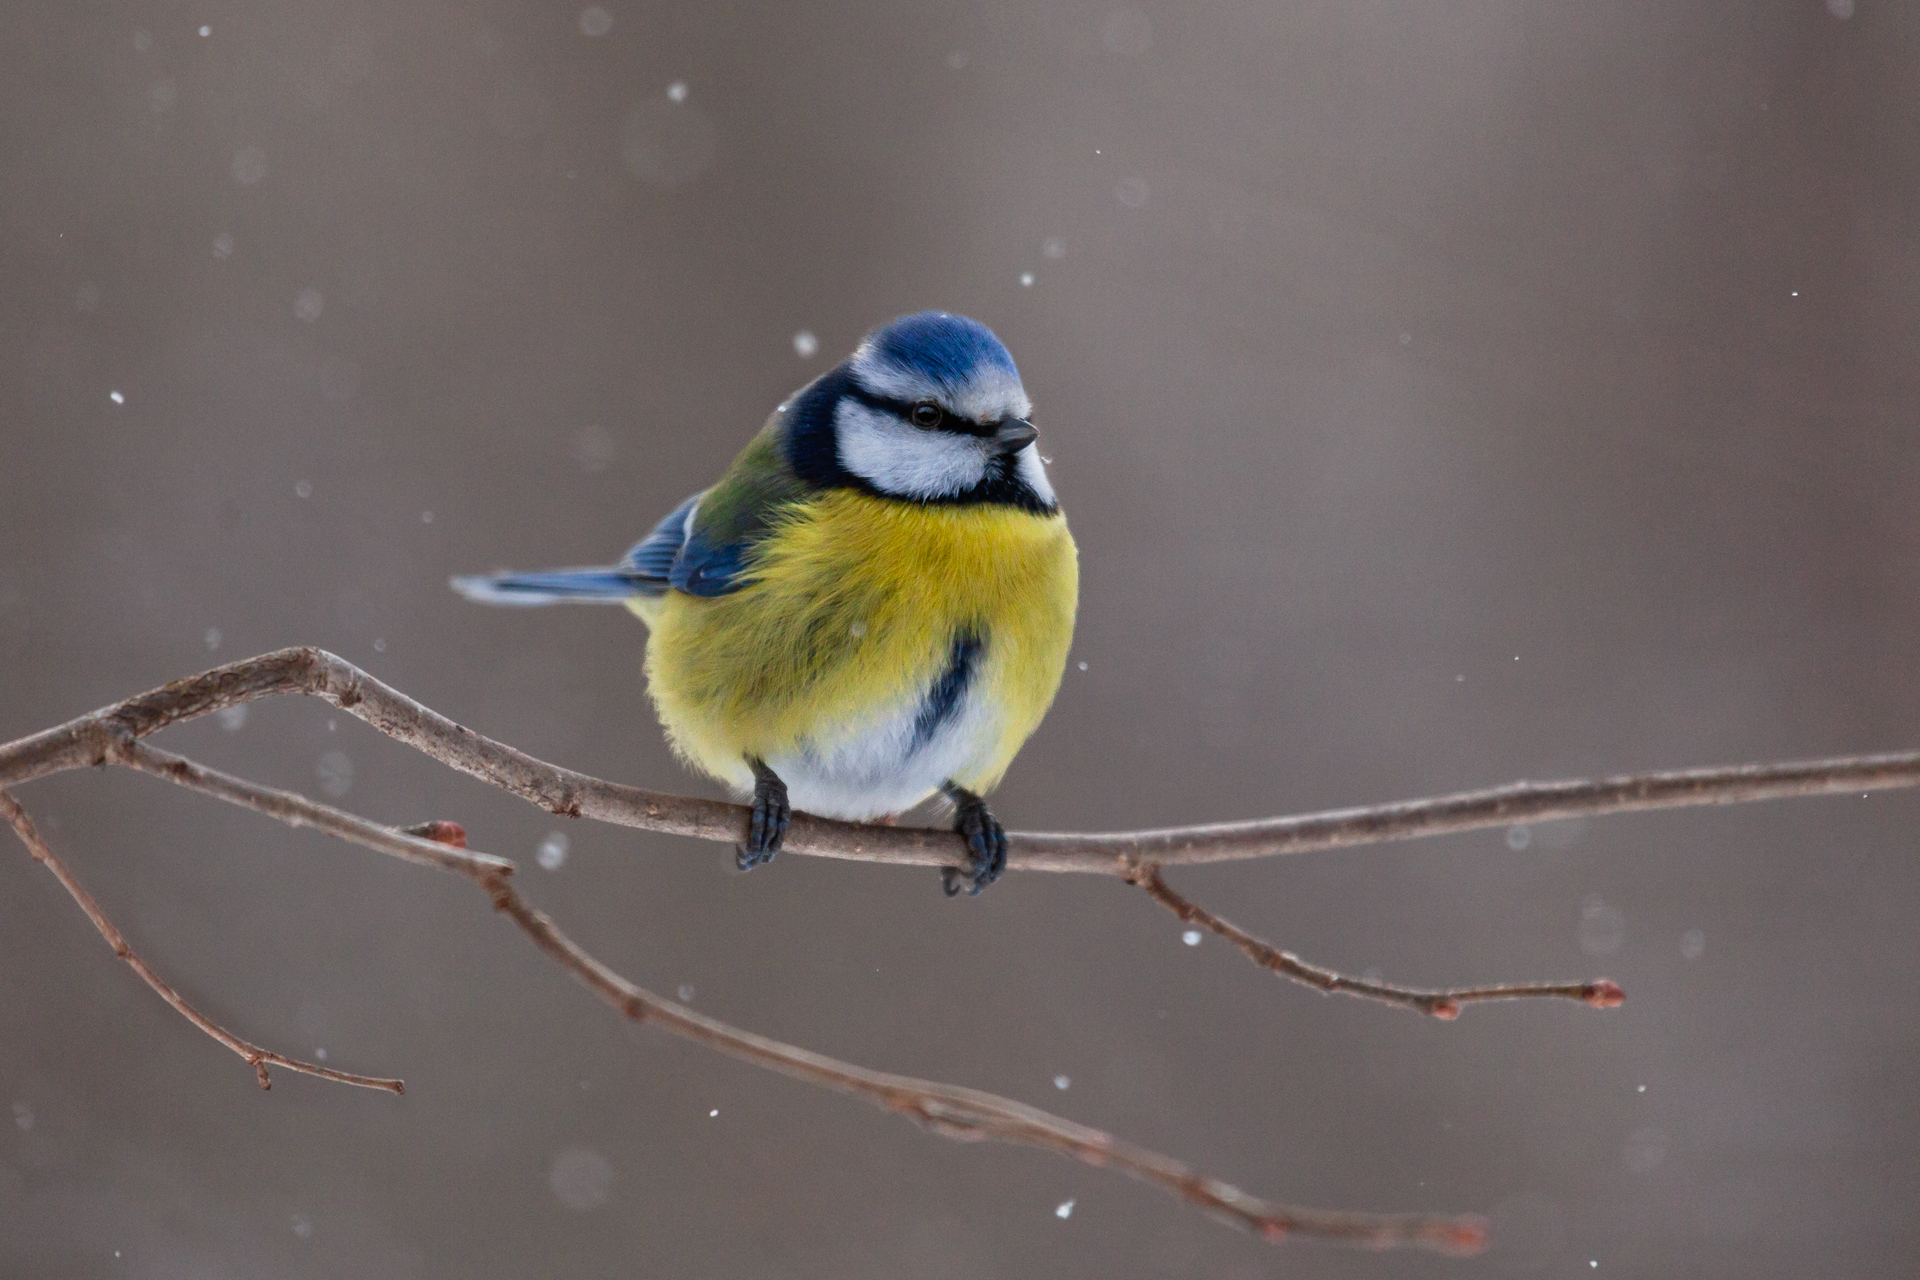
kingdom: Animalia
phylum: Chordata
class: Aves
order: Passeriformes
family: Paridae
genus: Cyanistes
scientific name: Cyanistes caeruleus
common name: Eurasian blue tit
